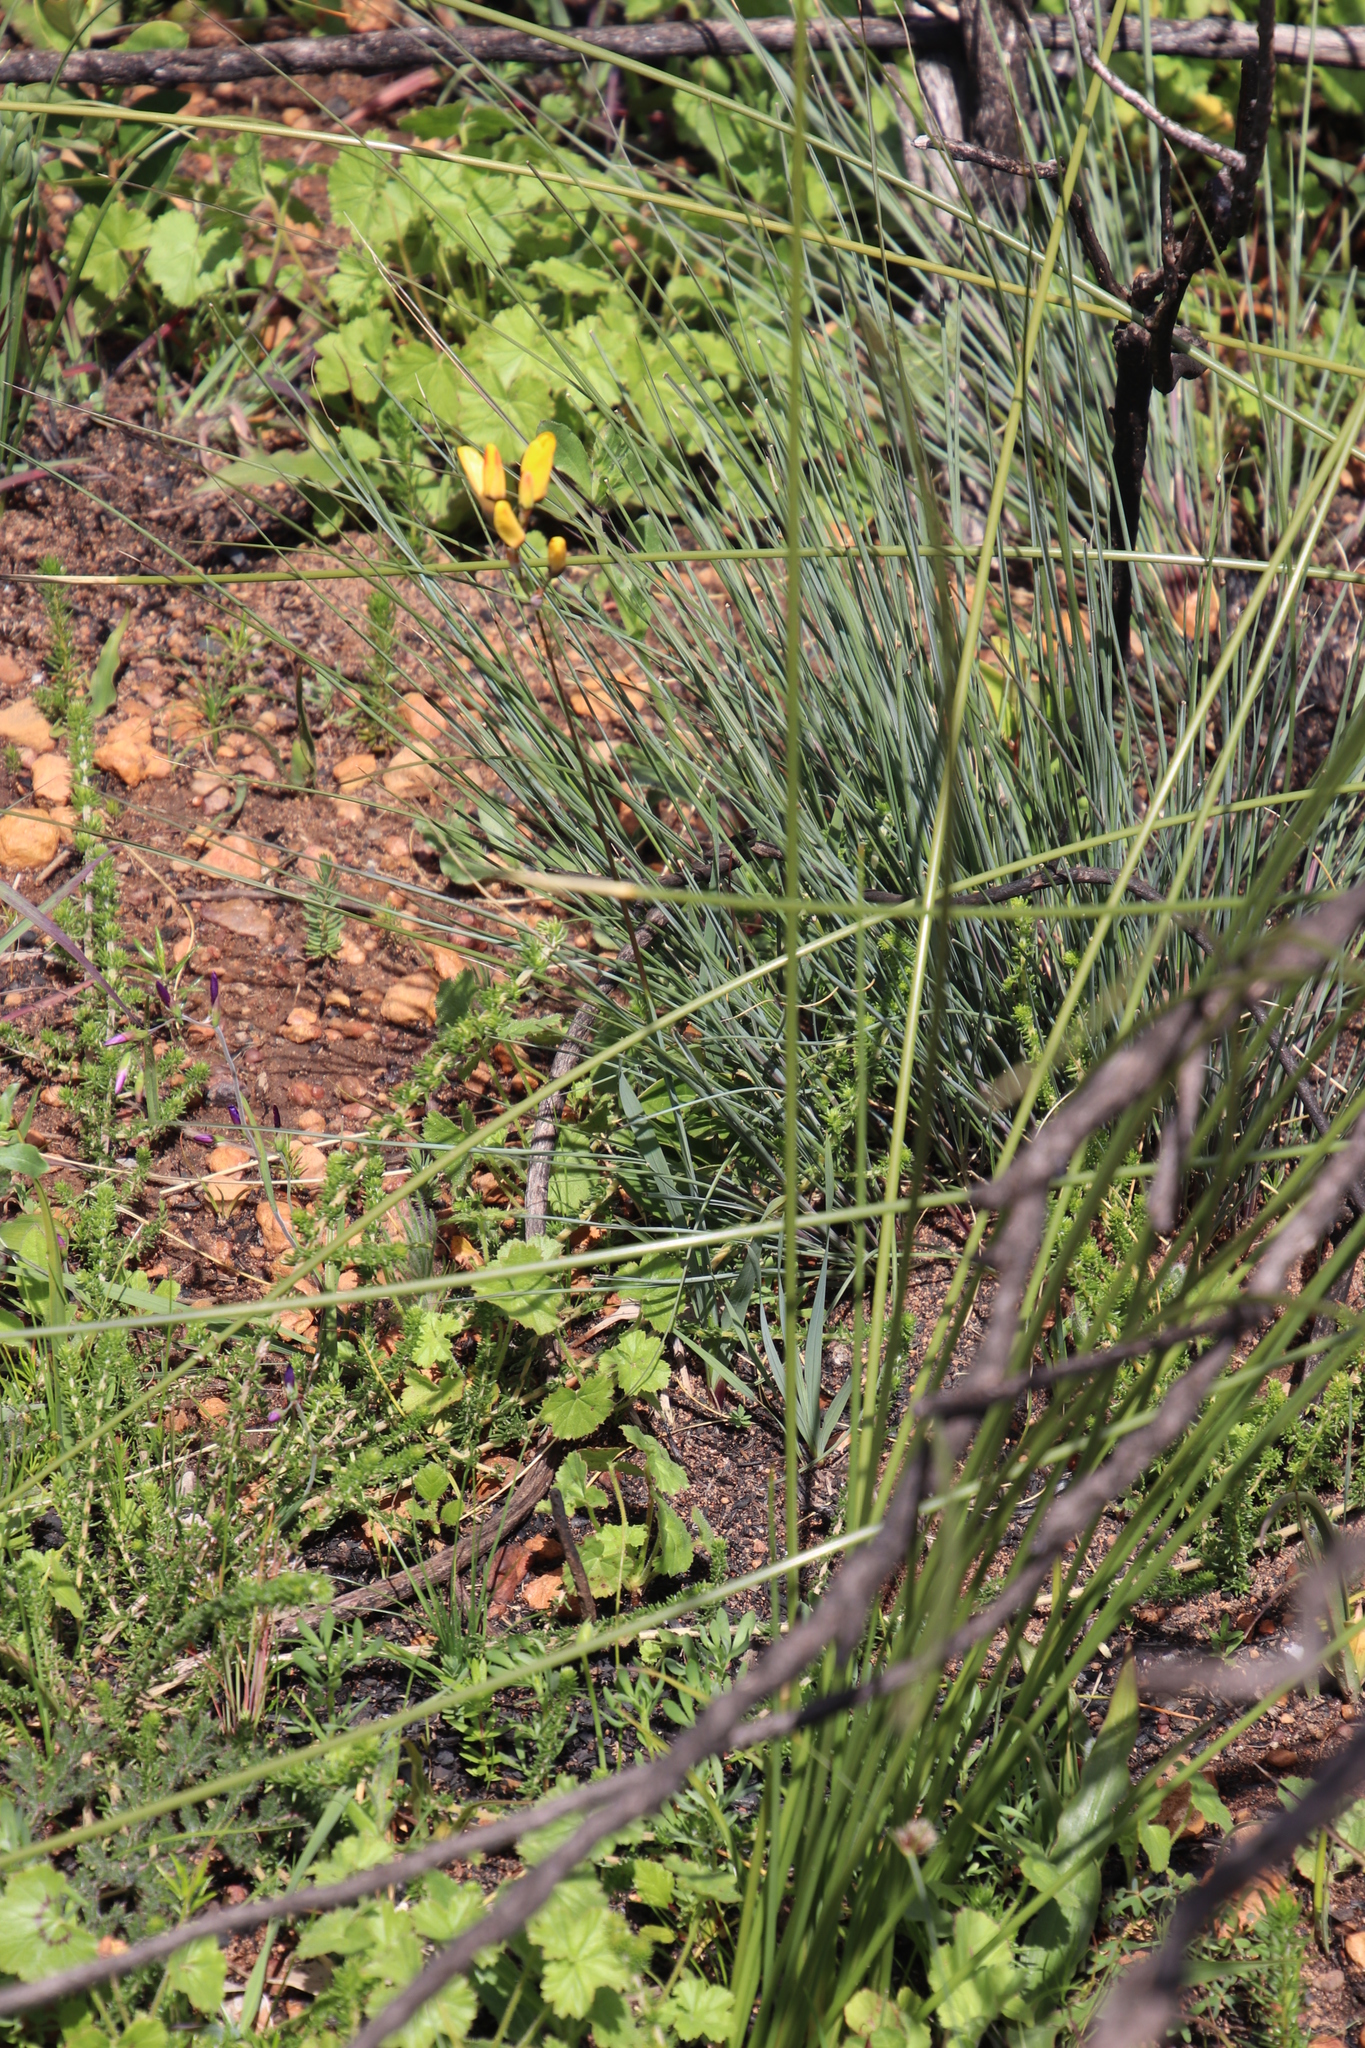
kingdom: Plantae
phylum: Tracheophyta
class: Liliopsida
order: Asparagales
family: Iridaceae
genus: Ixia
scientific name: Ixia dubia
